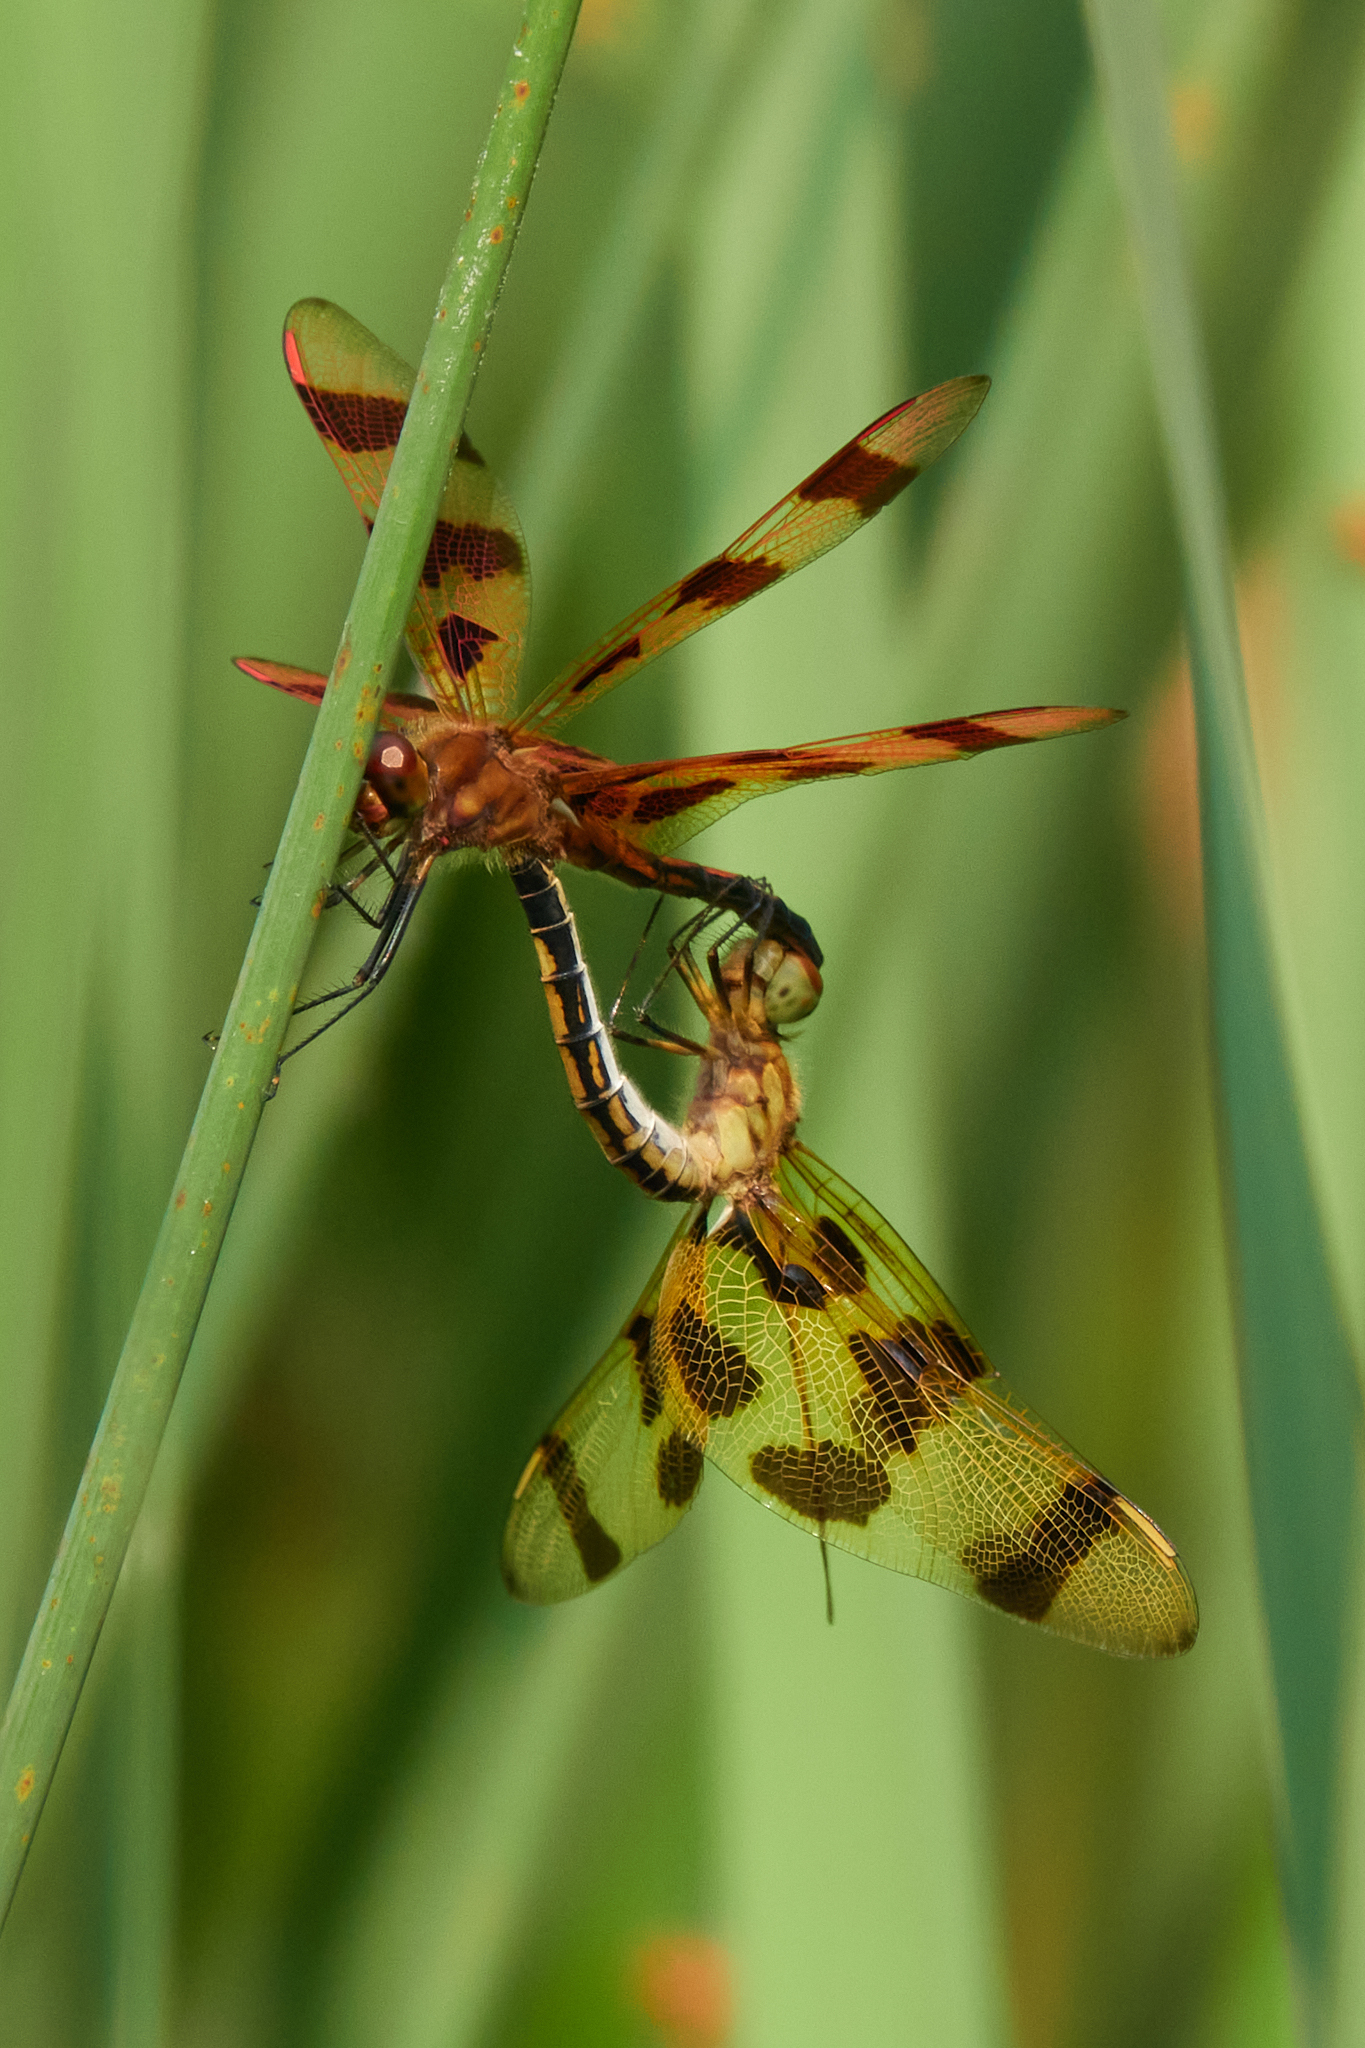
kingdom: Animalia
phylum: Arthropoda
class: Insecta
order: Odonata
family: Libellulidae
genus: Celithemis
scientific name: Celithemis eponina
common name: Halloween pennant
